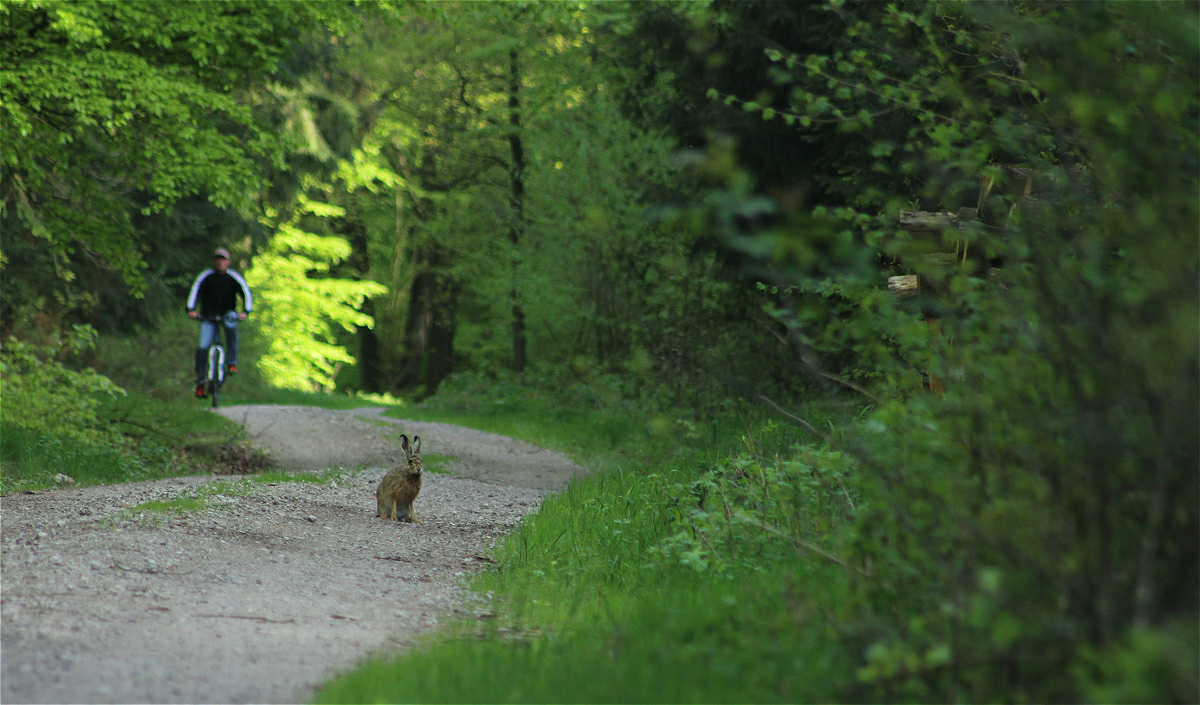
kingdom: Animalia
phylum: Chordata
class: Mammalia
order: Lagomorpha
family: Leporidae
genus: Lepus
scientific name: Lepus europaeus
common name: European hare
